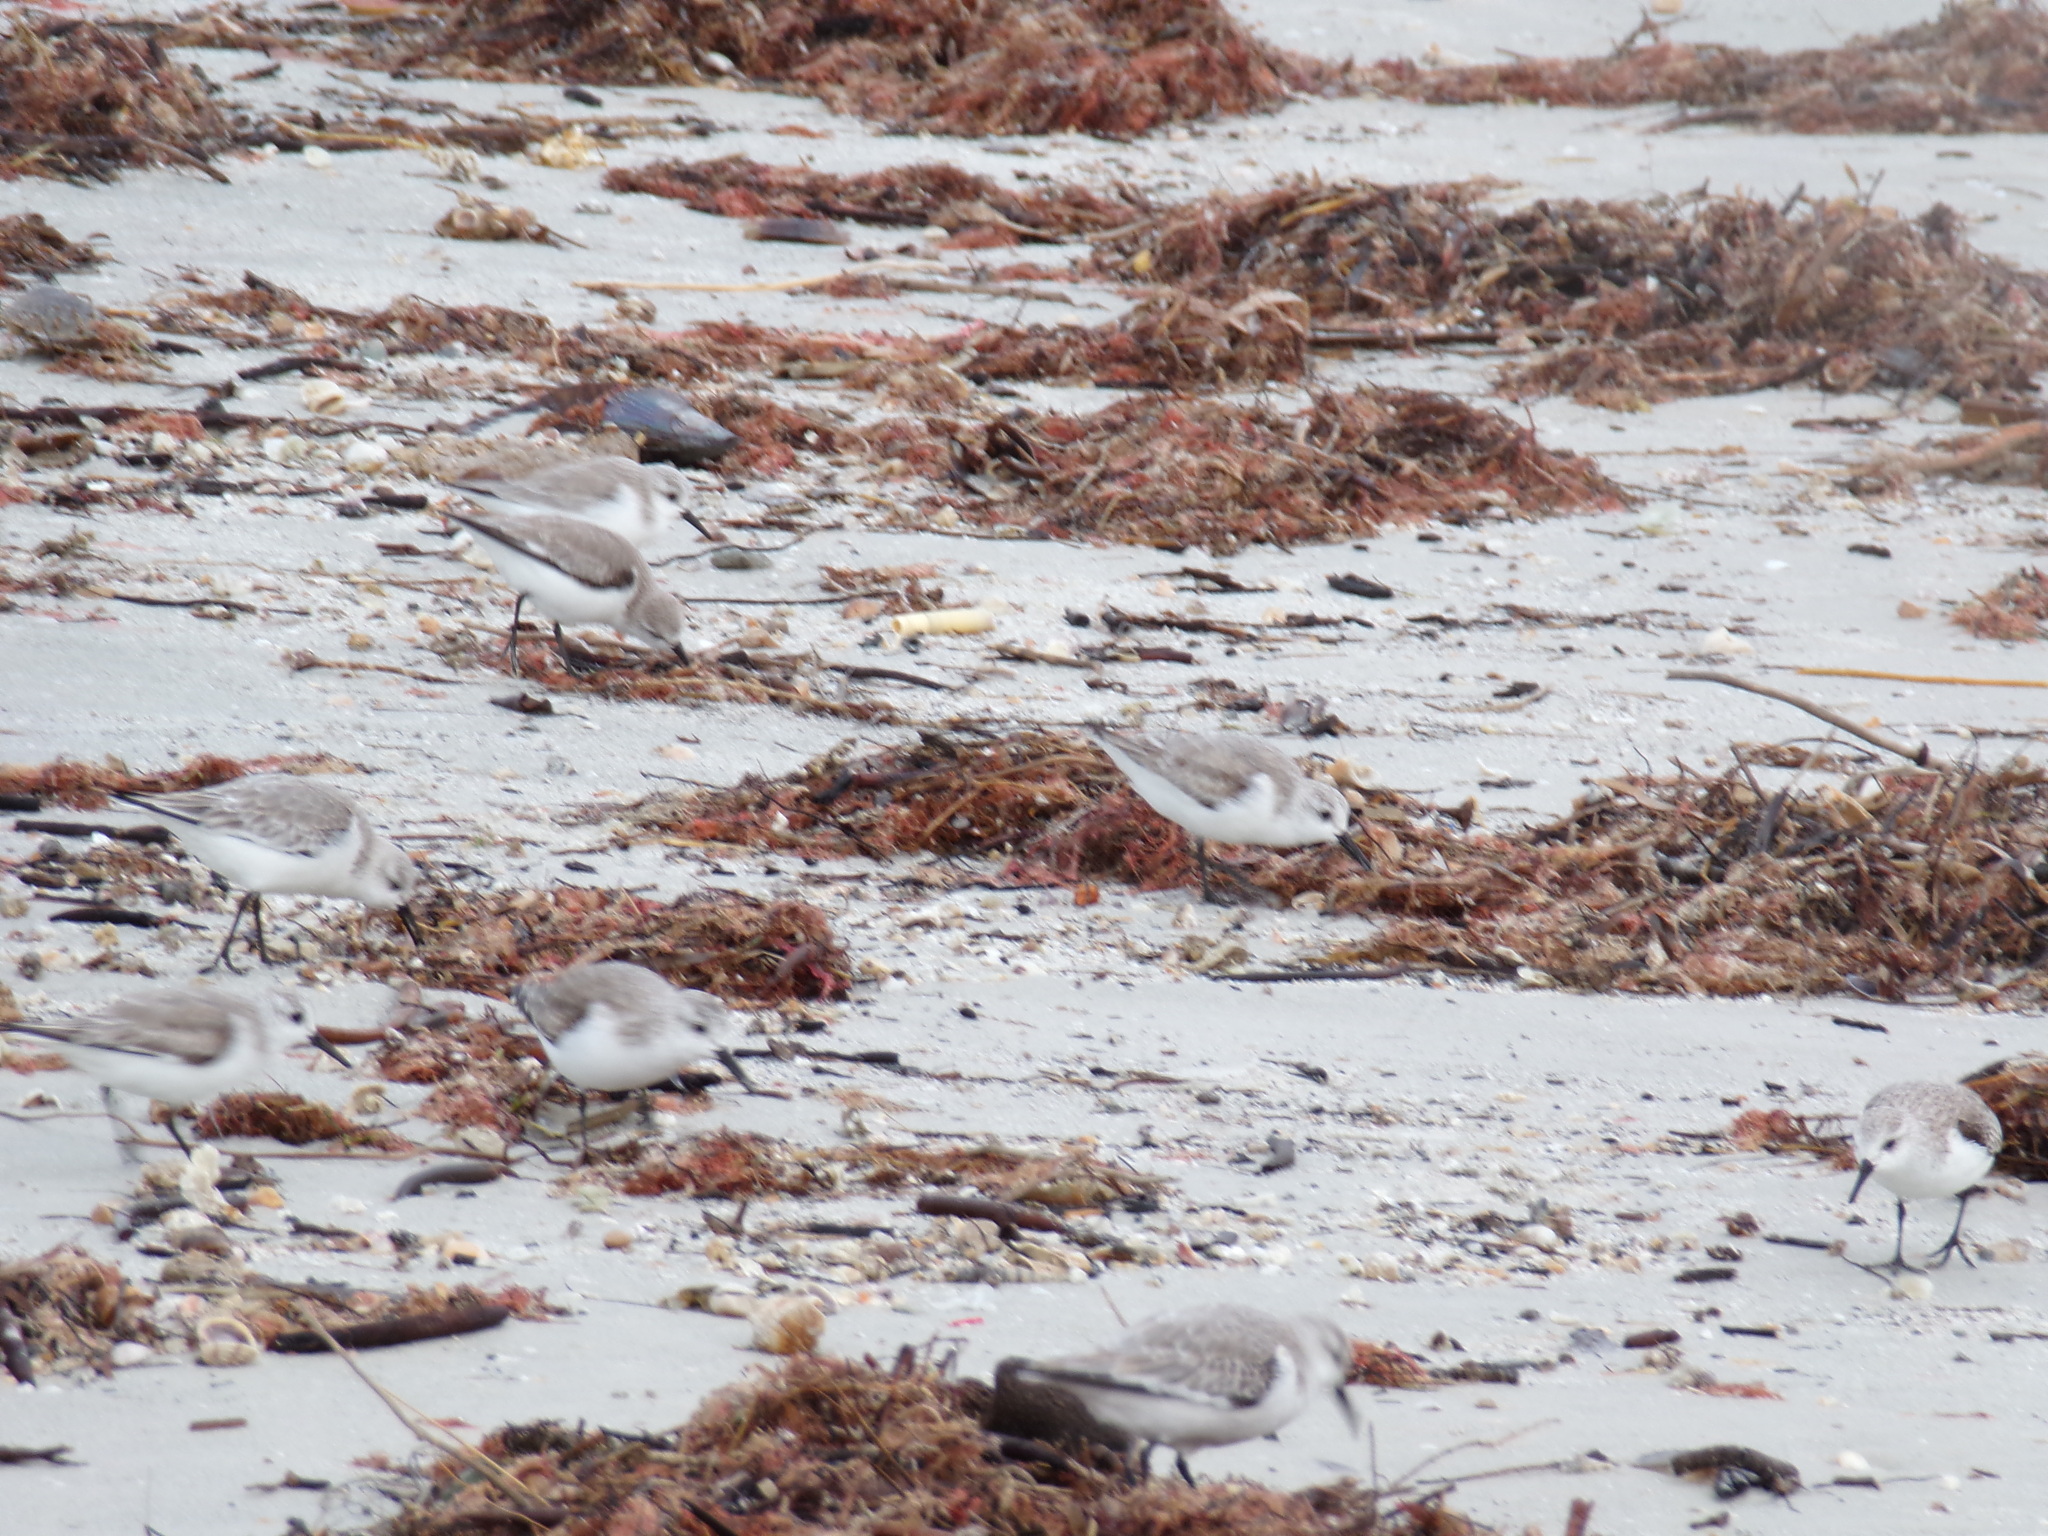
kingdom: Animalia
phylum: Chordata
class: Aves
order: Charadriiformes
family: Scolopacidae
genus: Calidris
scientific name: Calidris alba
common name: Sanderling
